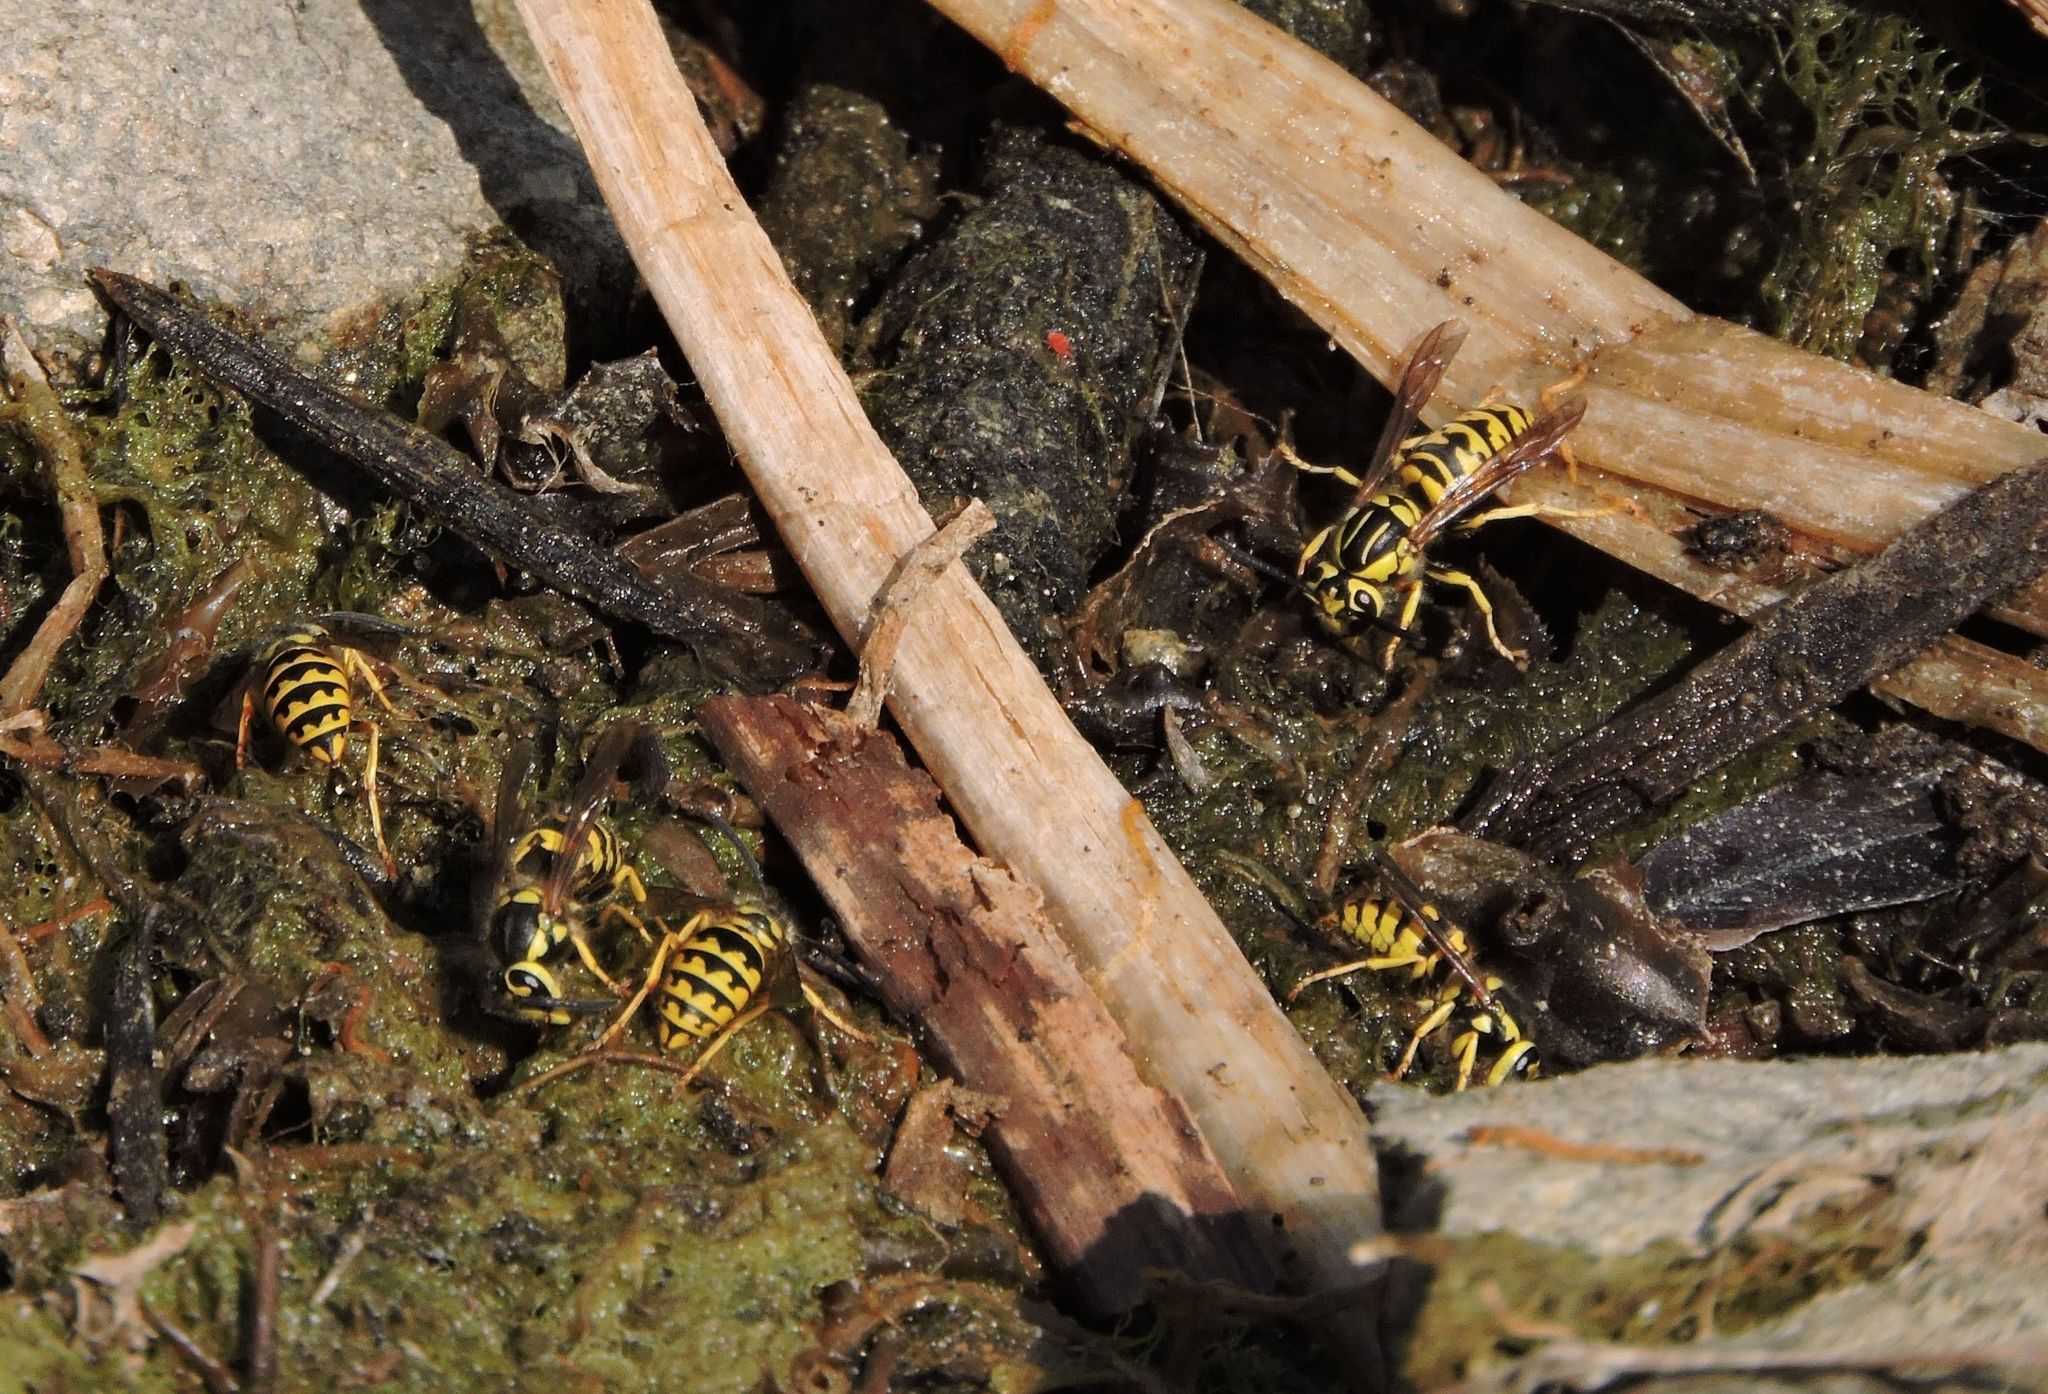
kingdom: Animalia
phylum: Arthropoda
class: Insecta
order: Hymenoptera
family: Vespidae
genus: Vespula
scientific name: Vespula sulphurea
